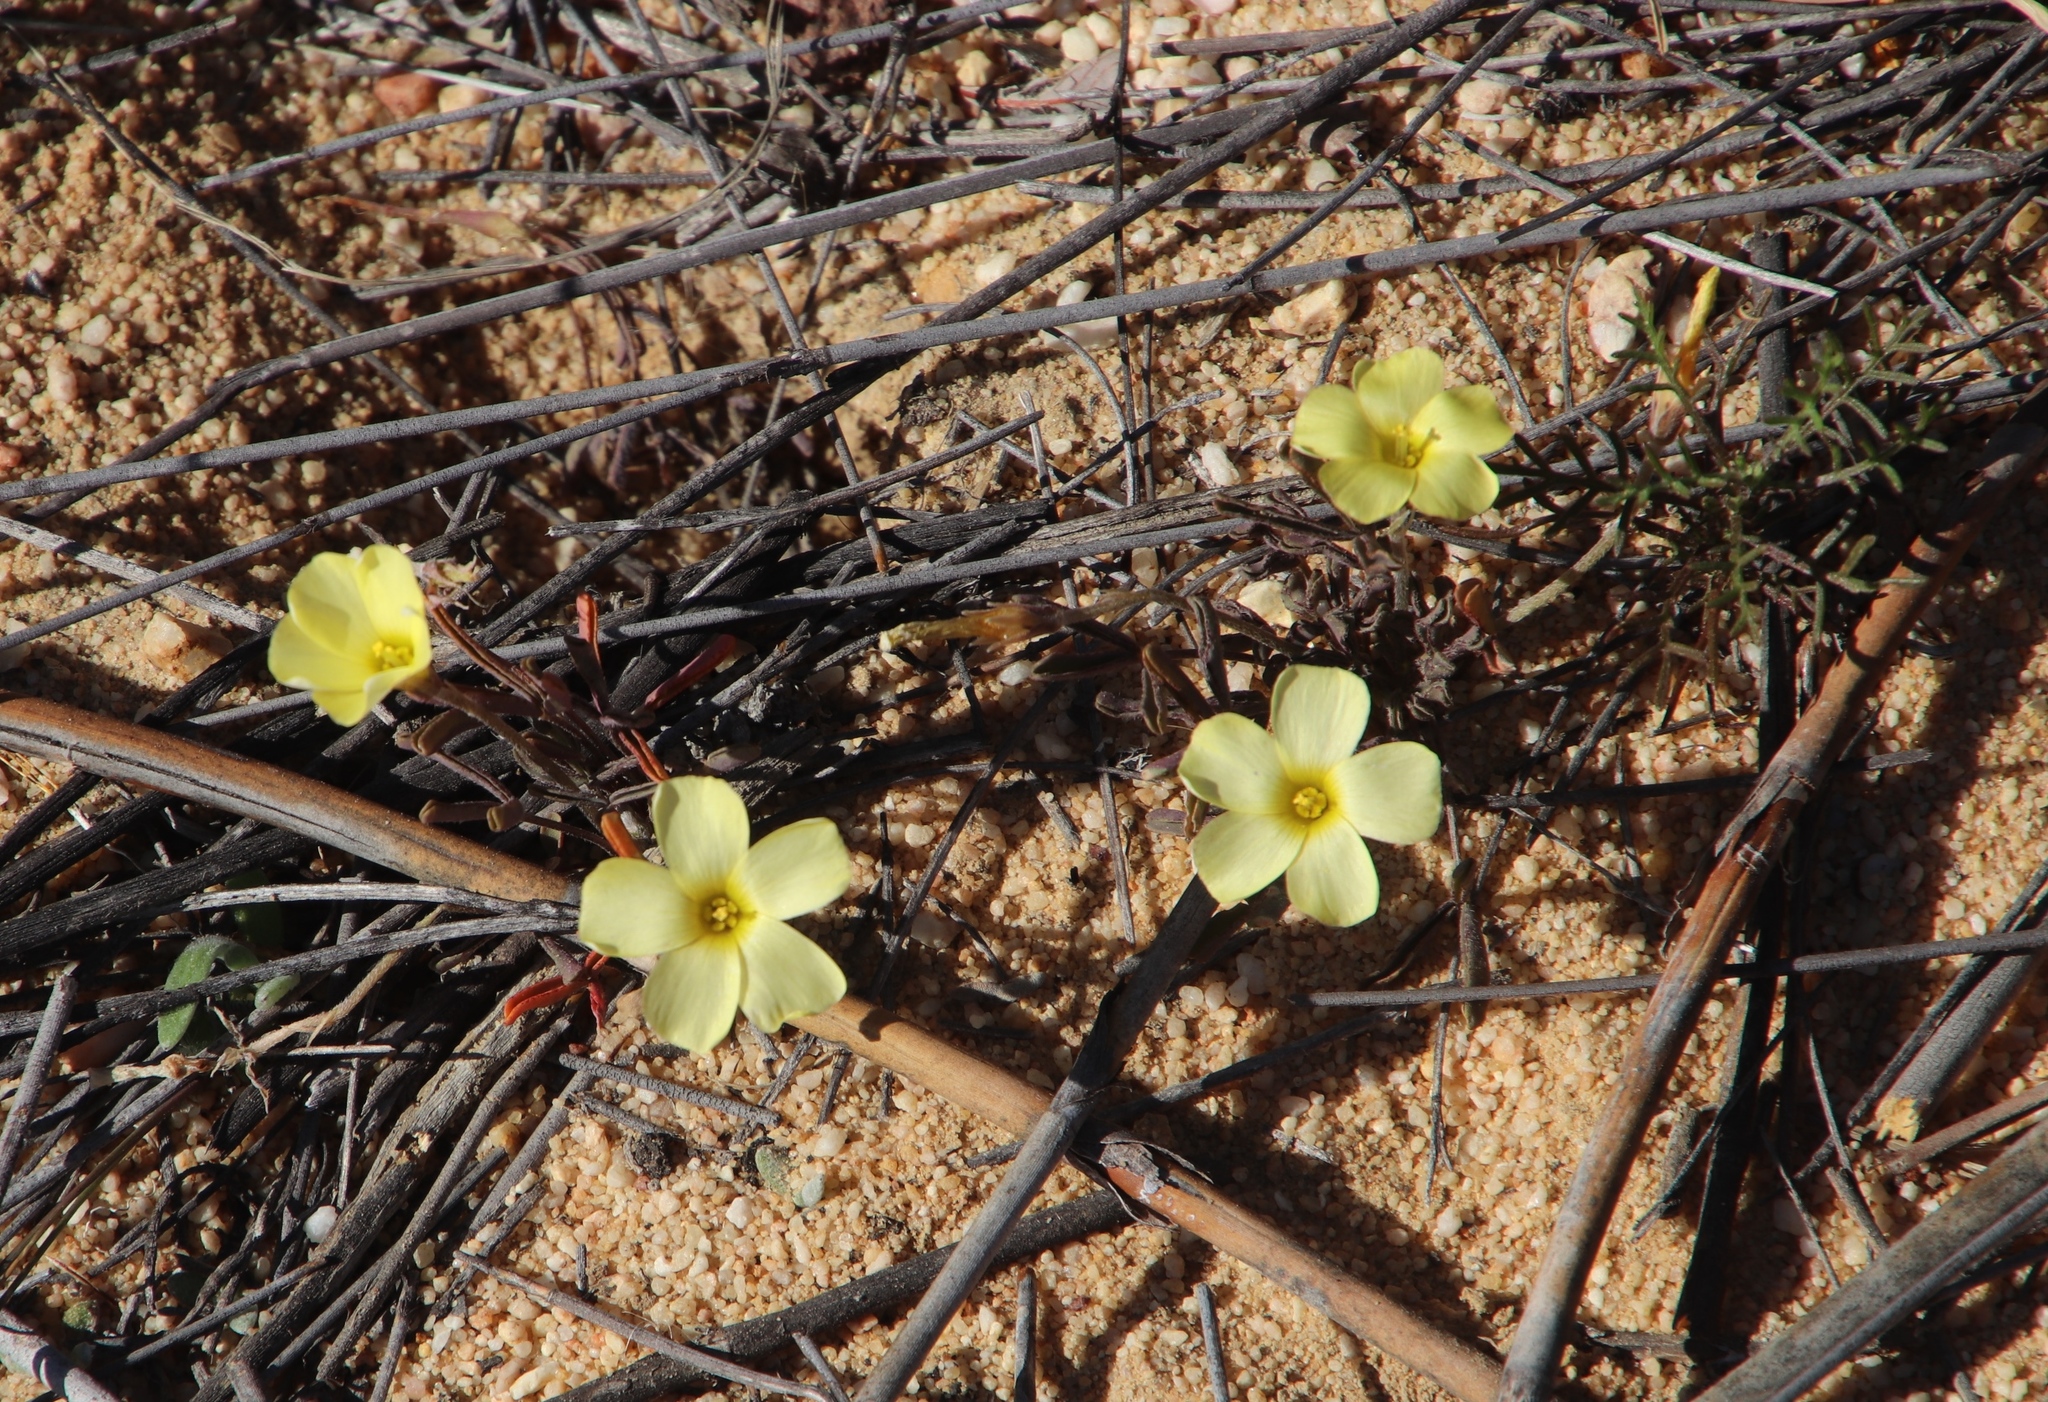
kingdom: Plantae
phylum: Tracheophyta
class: Magnoliopsida
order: Oxalidales
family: Oxalidaceae
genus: Oxalis
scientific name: Oxalis obtusa
